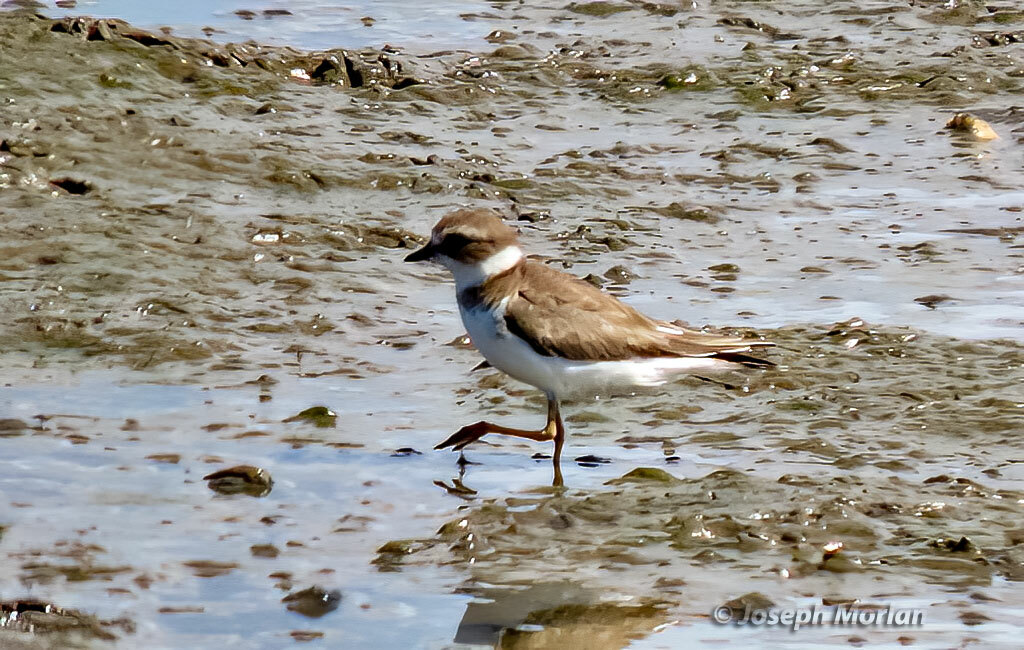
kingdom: Animalia
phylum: Chordata
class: Aves
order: Charadriiformes
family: Charadriidae
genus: Charadrius
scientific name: Charadrius semipalmatus
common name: Semipalmated plover
